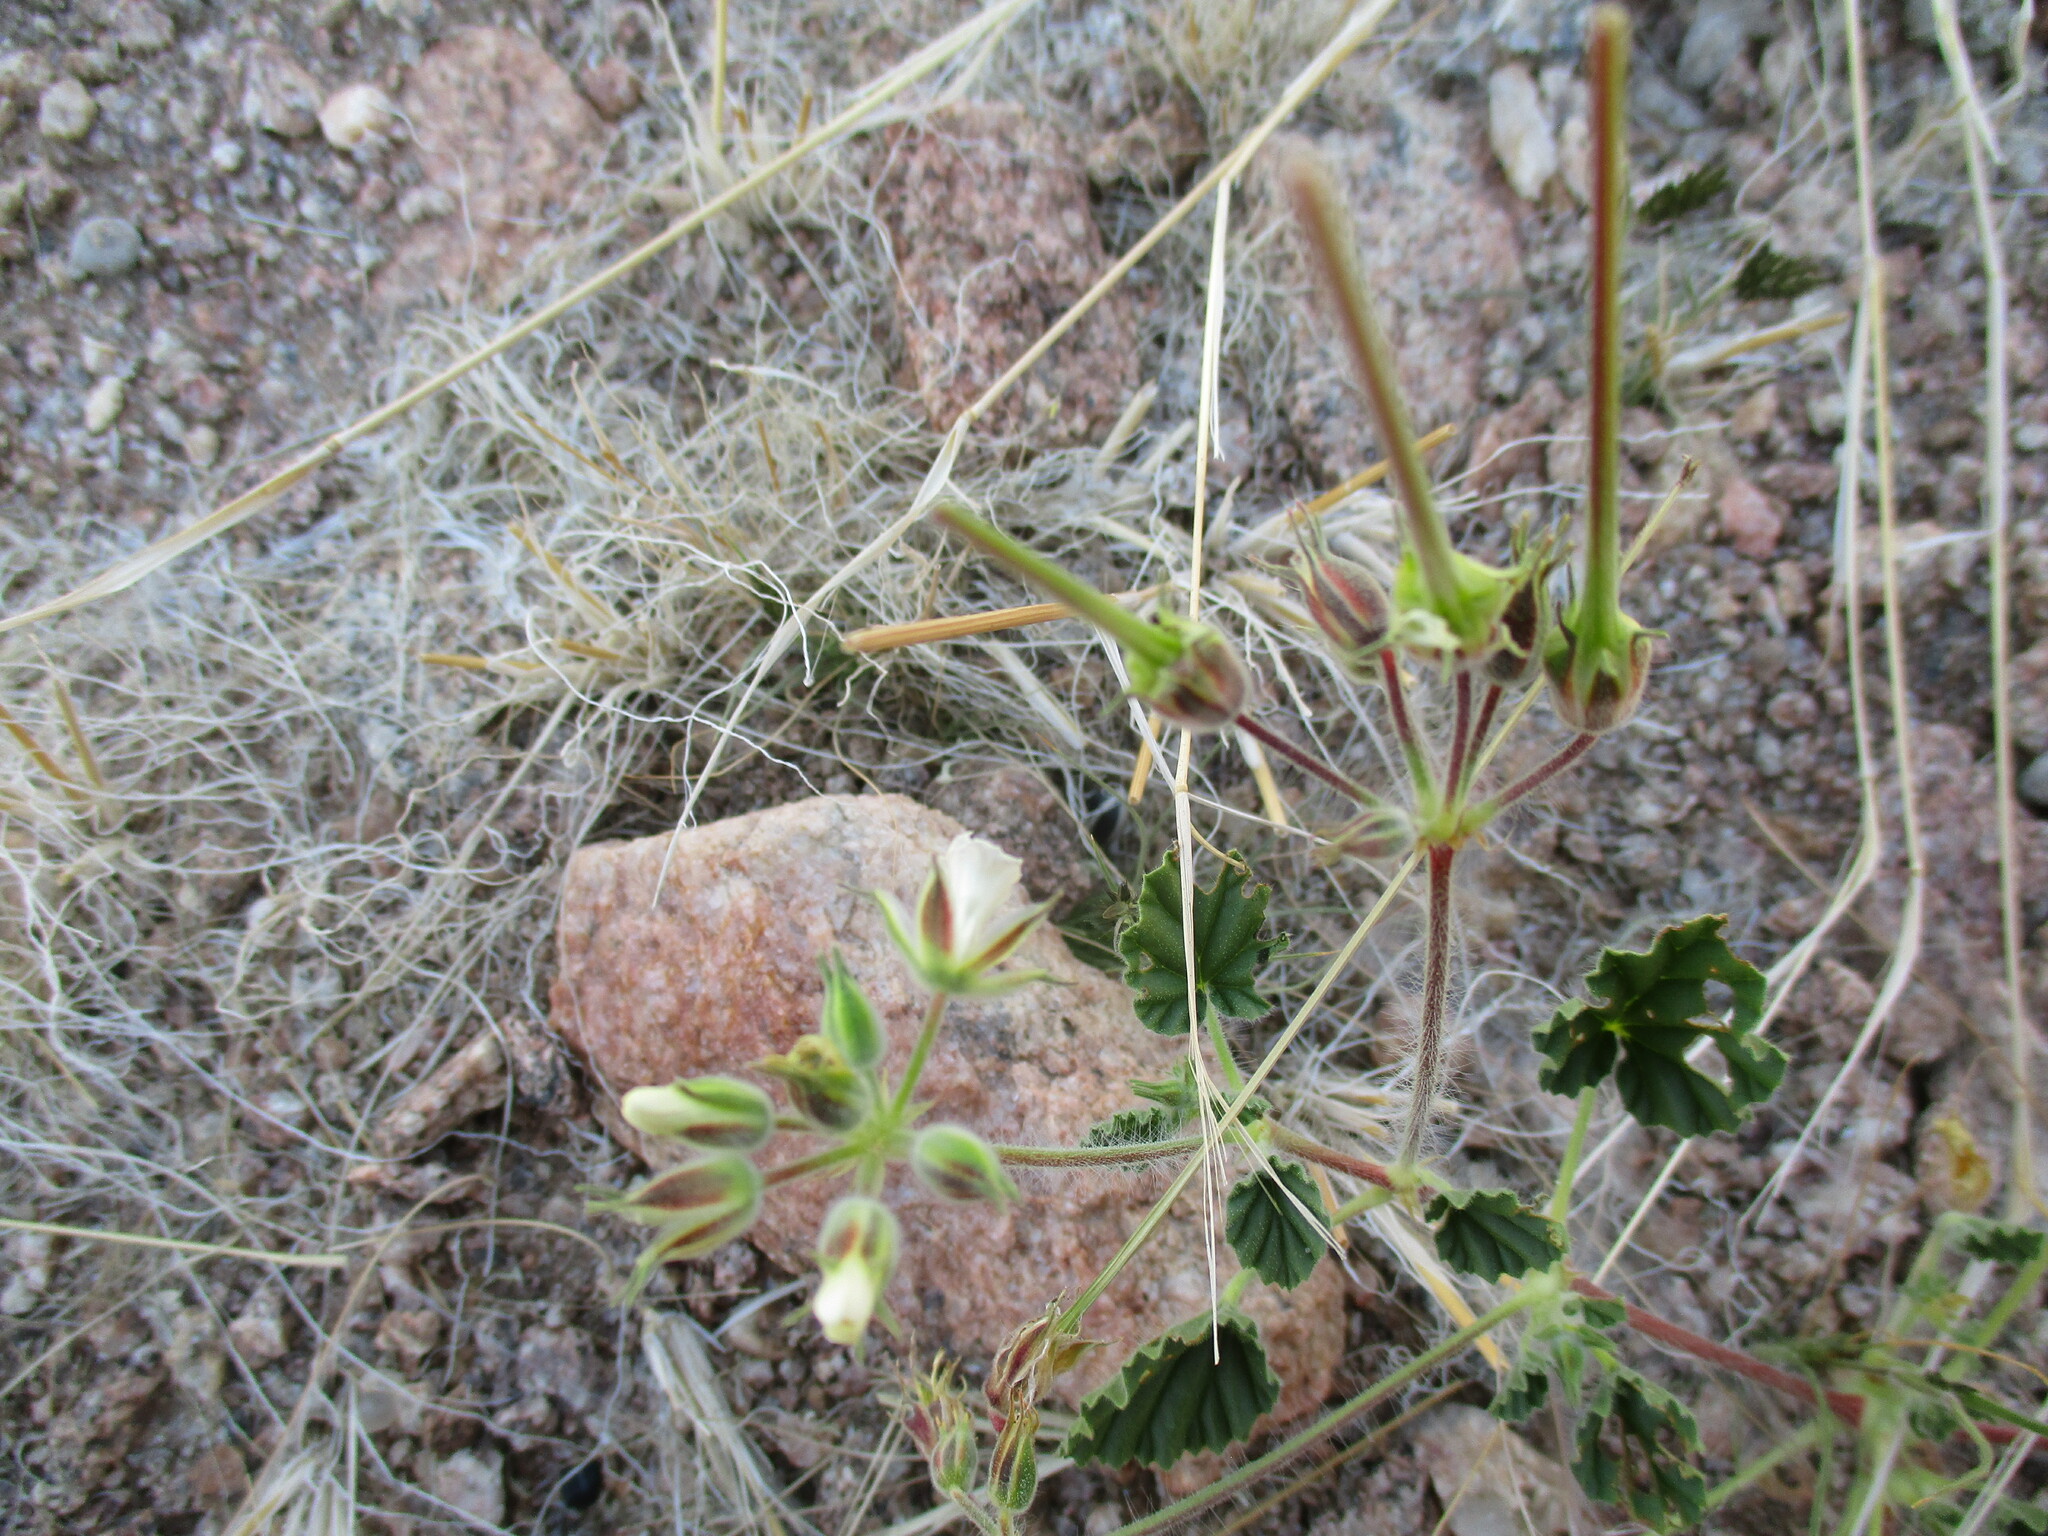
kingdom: Plantae
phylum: Tracheophyta
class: Magnoliopsida
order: Geraniales
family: Geraniaceae
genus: Monsonia
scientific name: Monsonia umbellata
